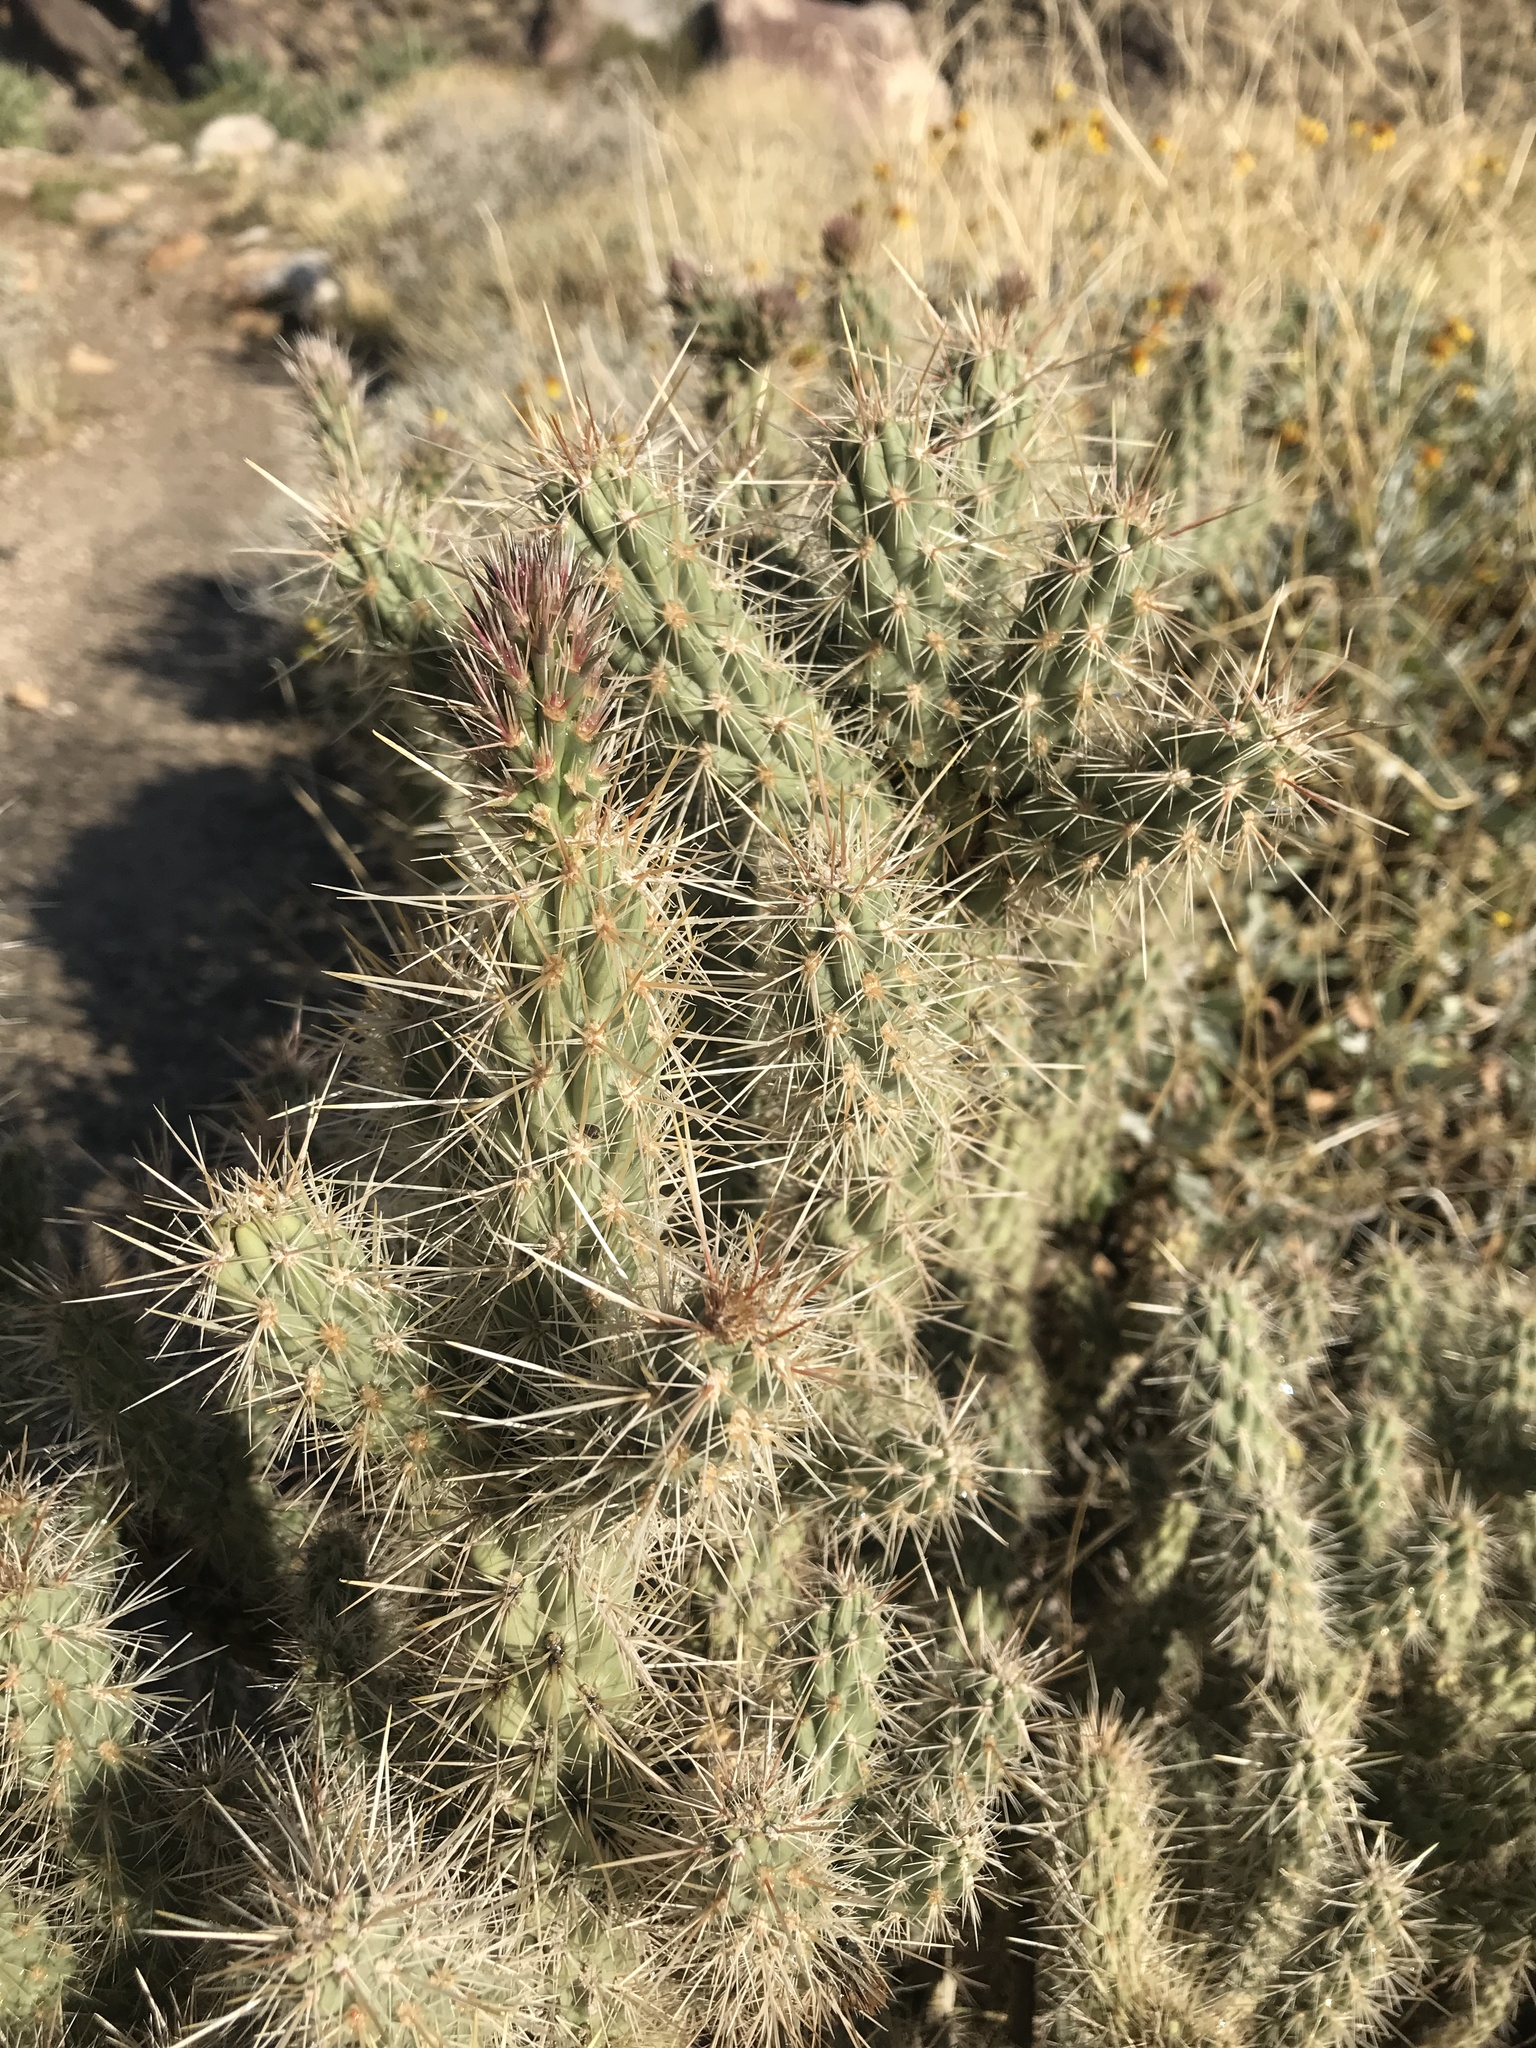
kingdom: Plantae
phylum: Tracheophyta
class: Magnoliopsida
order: Caryophyllales
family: Cactaceae
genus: Cylindropuntia
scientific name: Cylindropuntia echinocarpa
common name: Ground cholla
